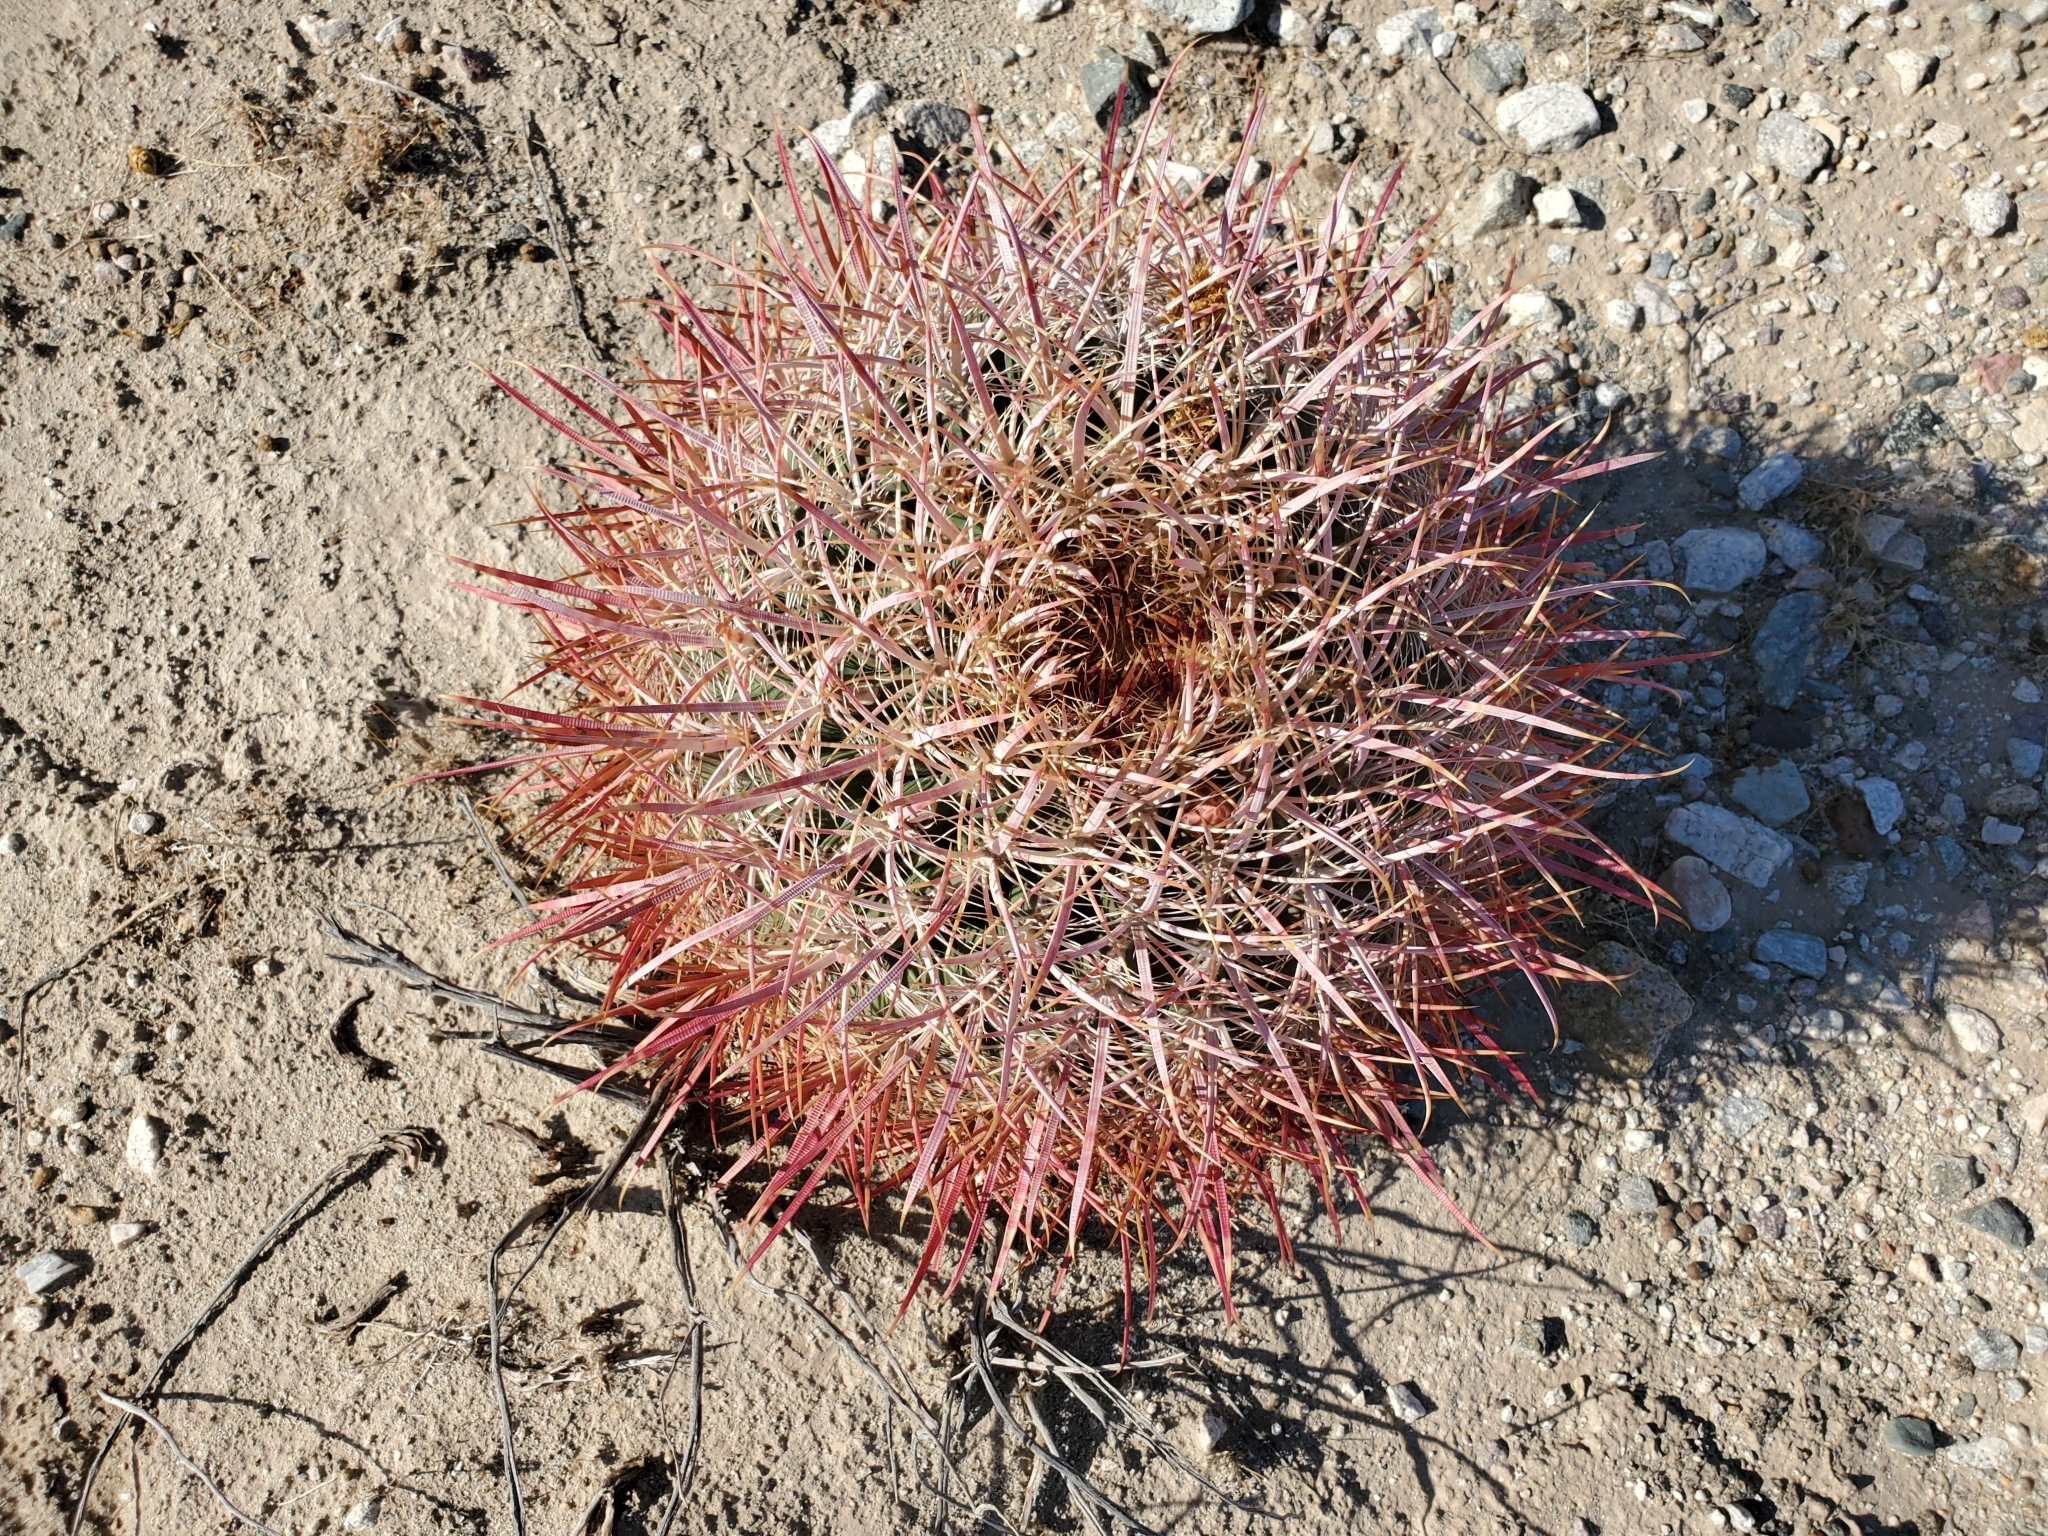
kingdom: Plantae
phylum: Tracheophyta
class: Magnoliopsida
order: Caryophyllales
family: Cactaceae
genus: Ferocactus
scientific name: Ferocactus cylindraceus
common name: California barrel cactus
